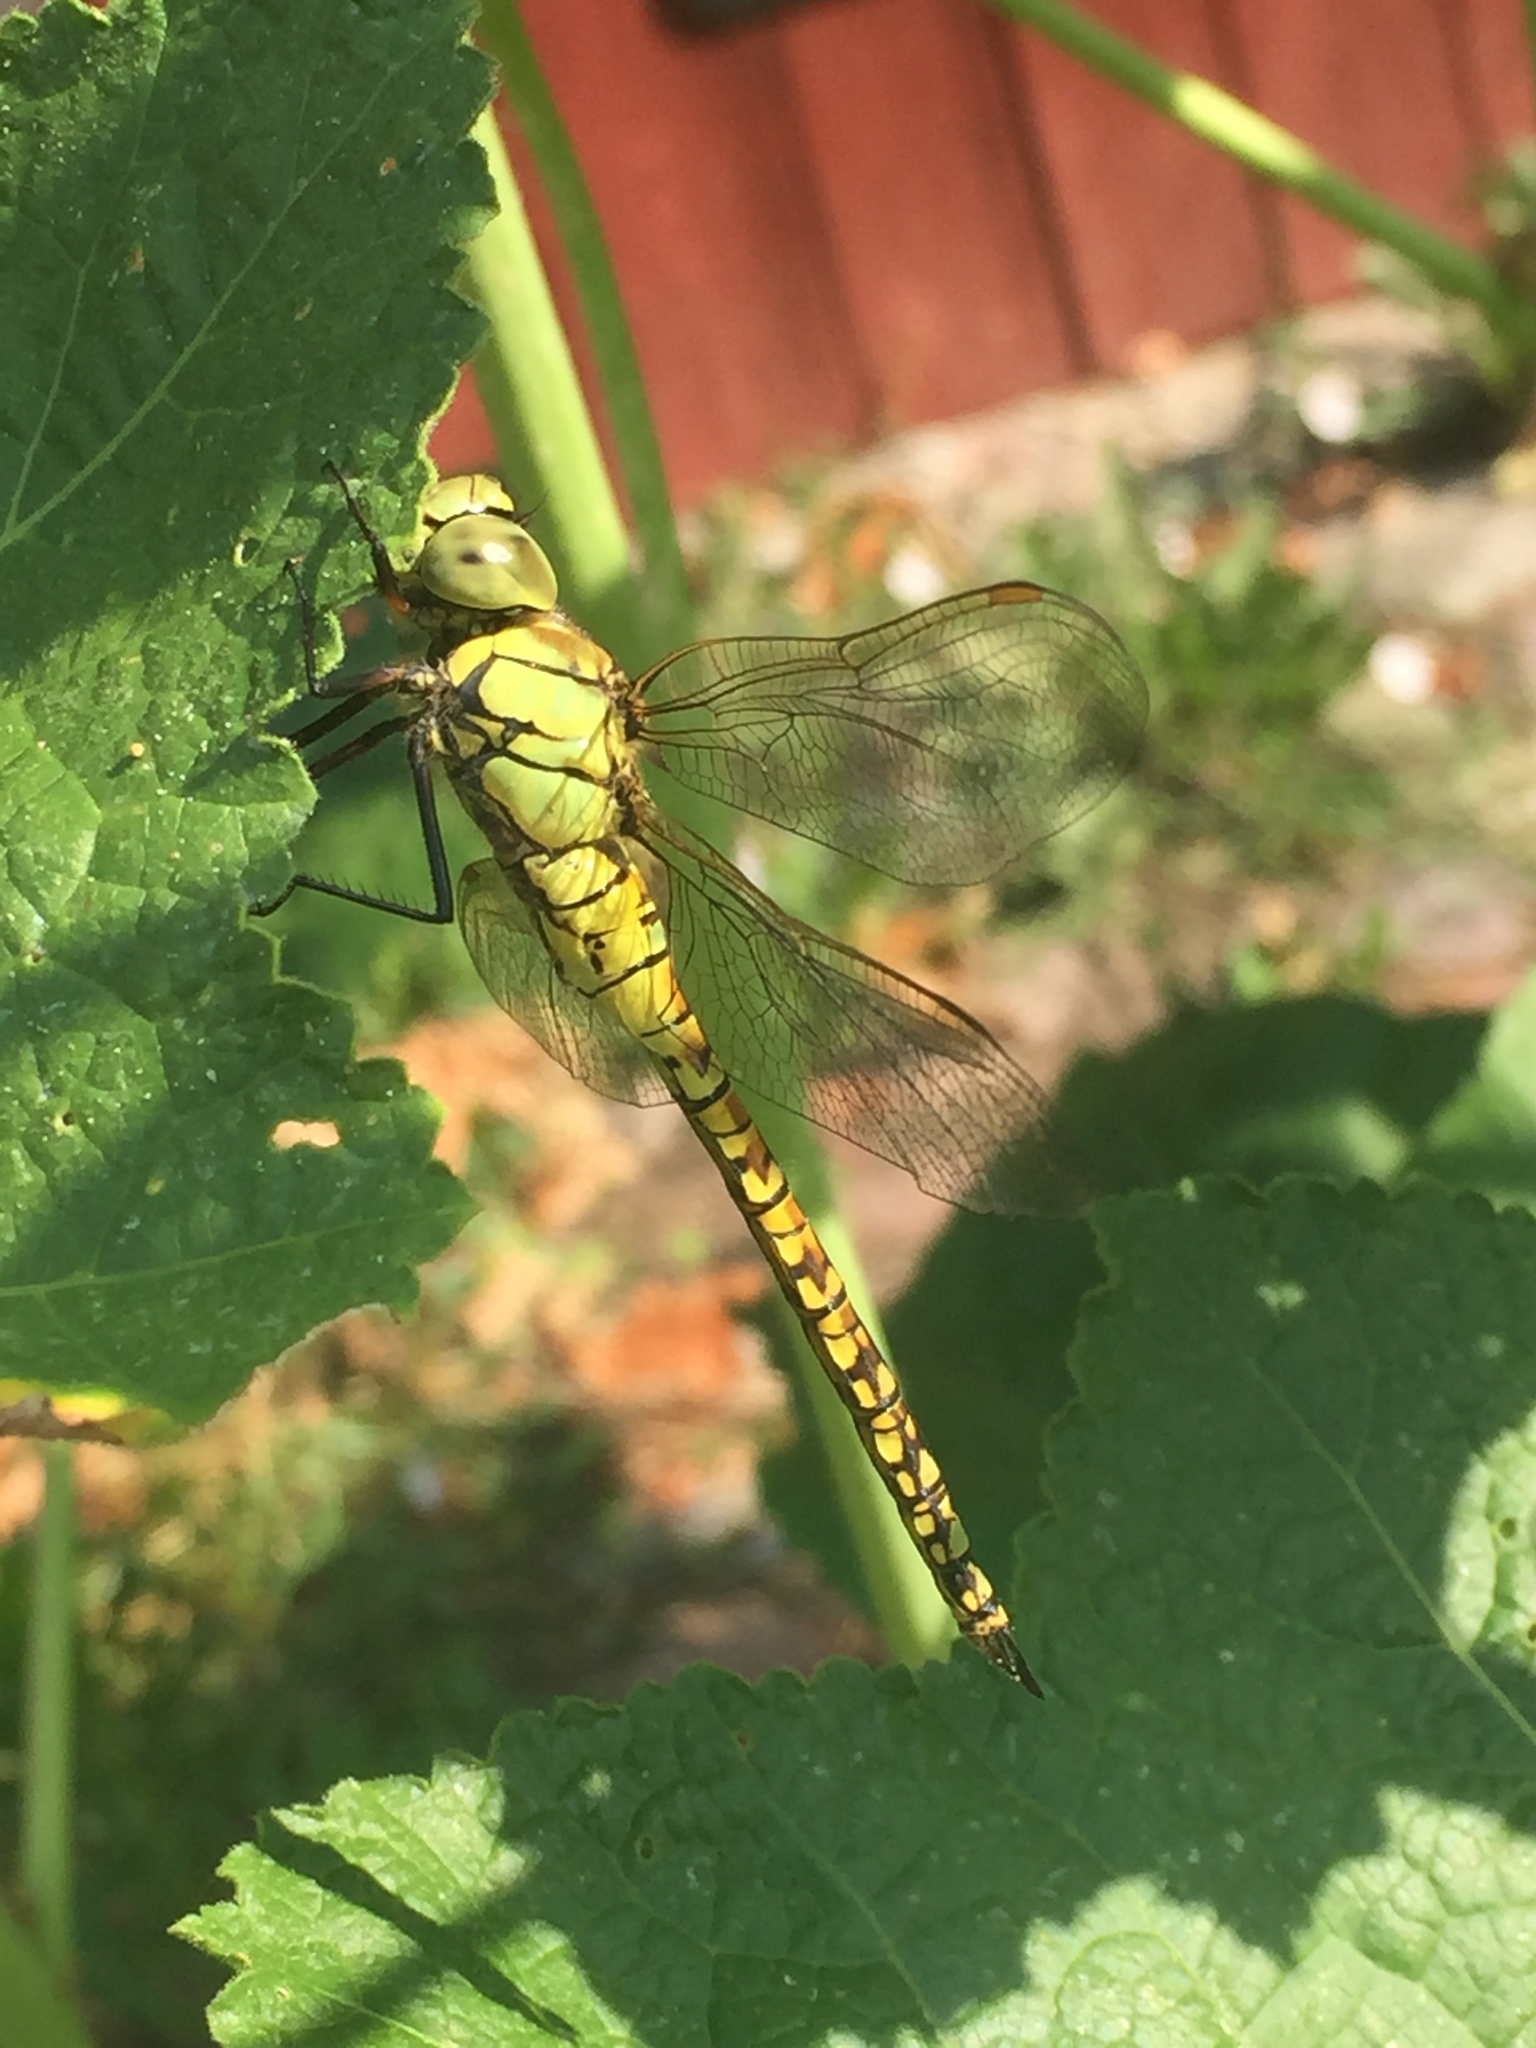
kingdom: Animalia
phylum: Arthropoda
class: Insecta
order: Odonata
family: Aeshnidae
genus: Aeshna
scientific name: Aeshna affinis
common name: Southern migrant hawker
